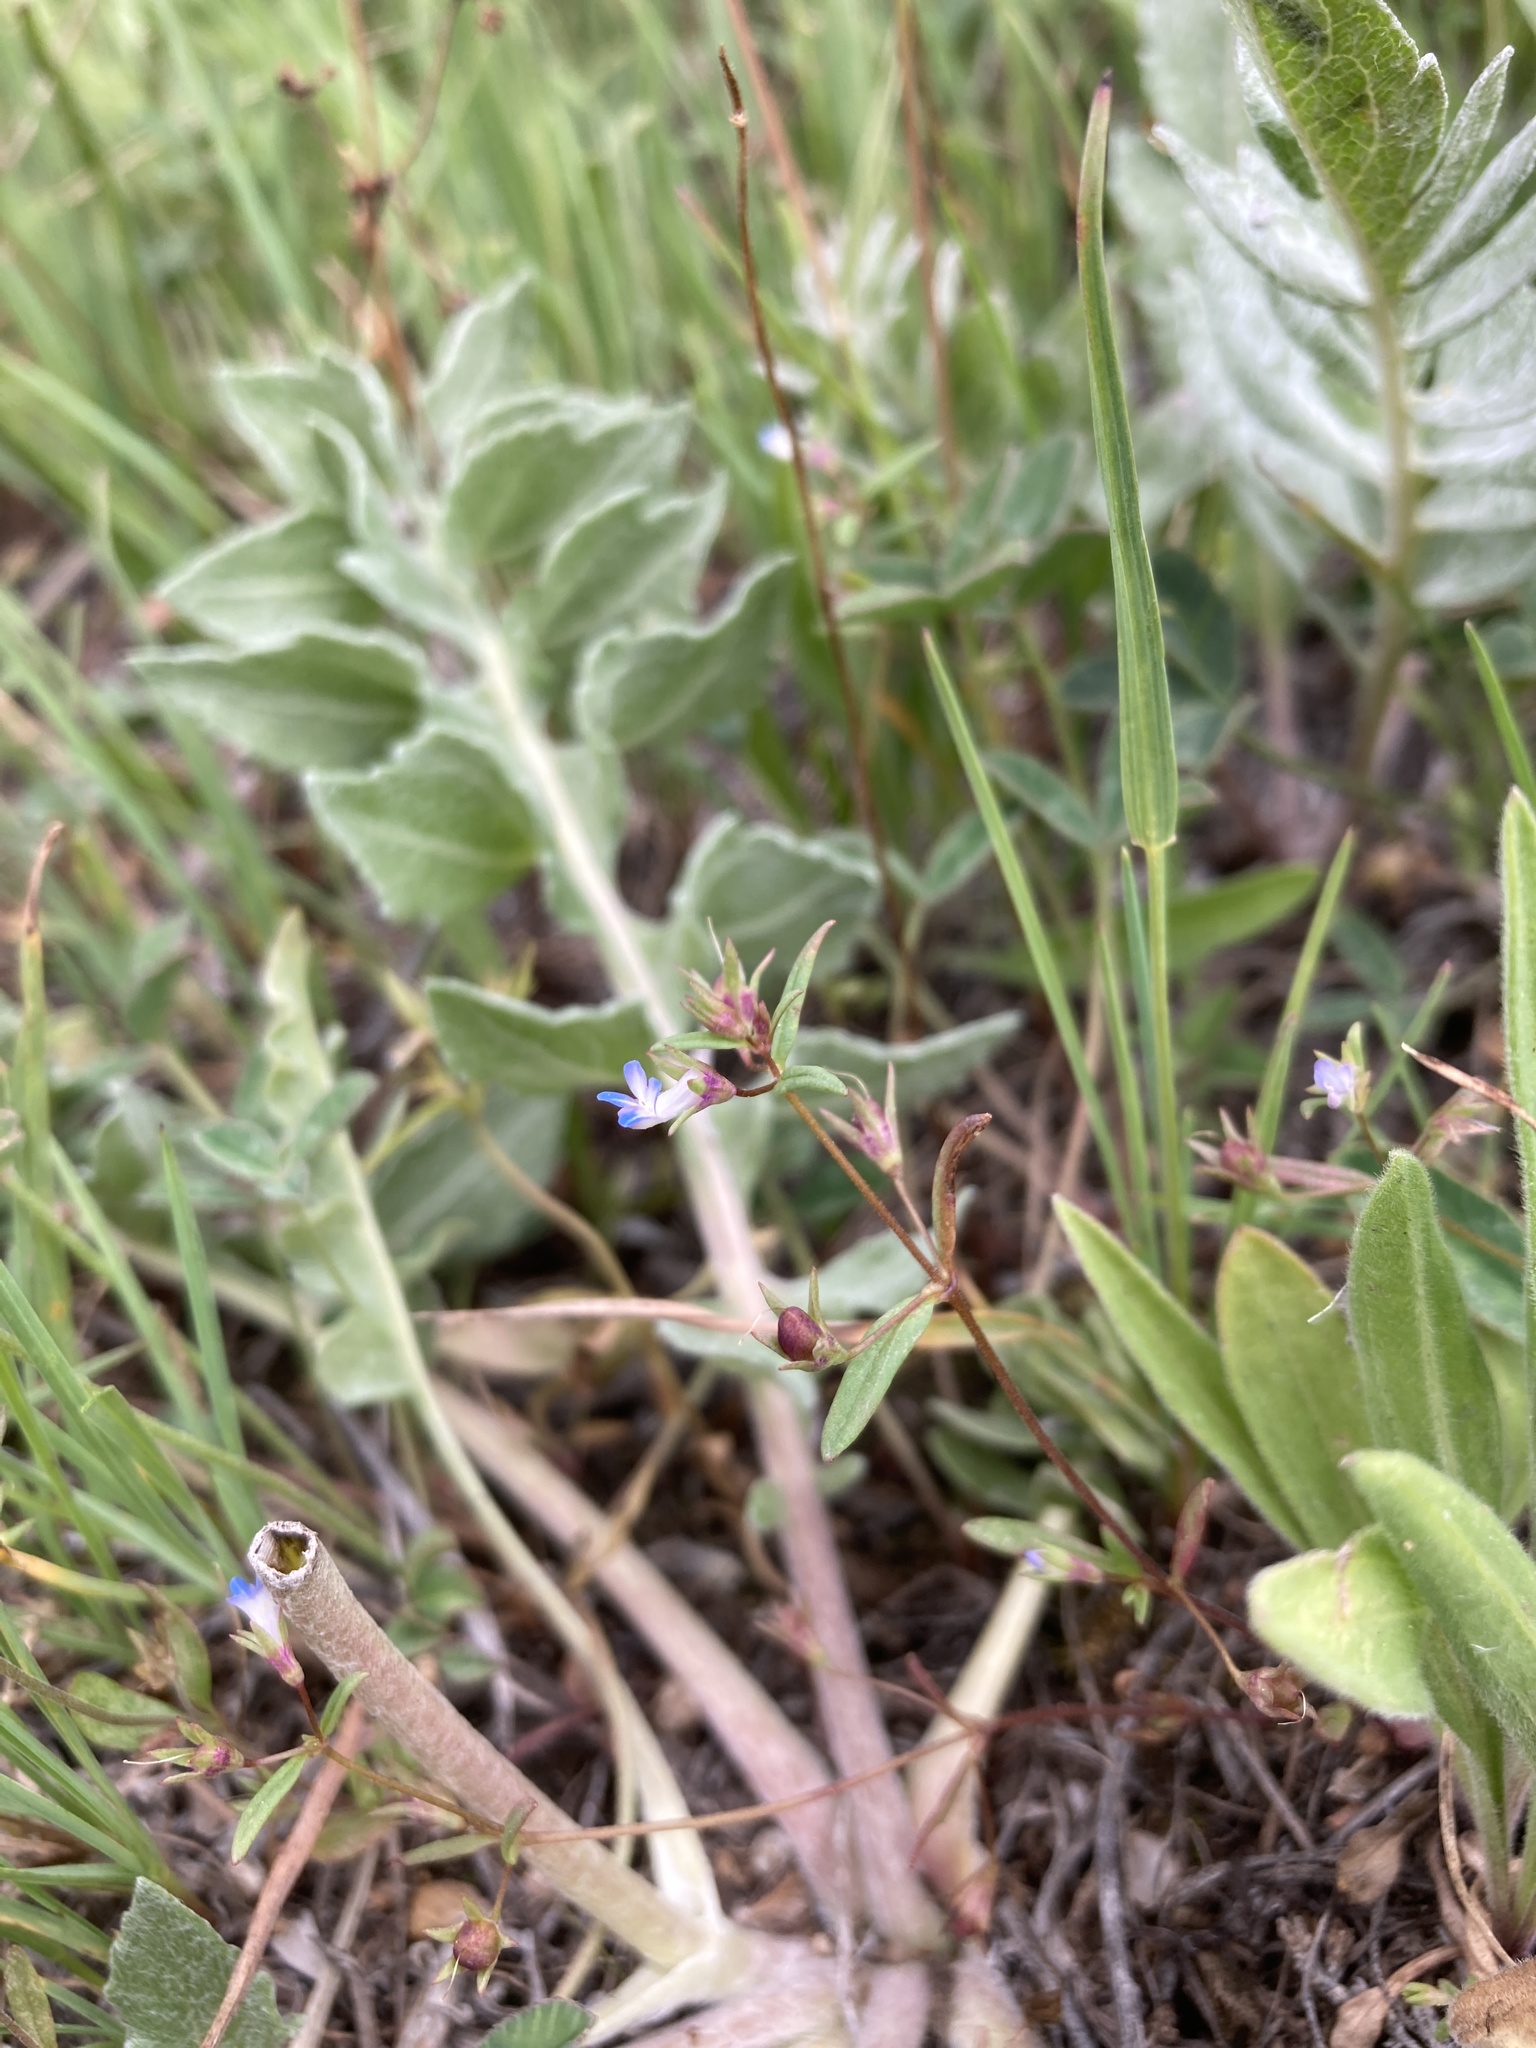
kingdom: Plantae
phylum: Tracheophyta
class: Magnoliopsida
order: Lamiales
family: Plantaginaceae
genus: Collinsia
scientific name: Collinsia parviflora
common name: Blue-lips
